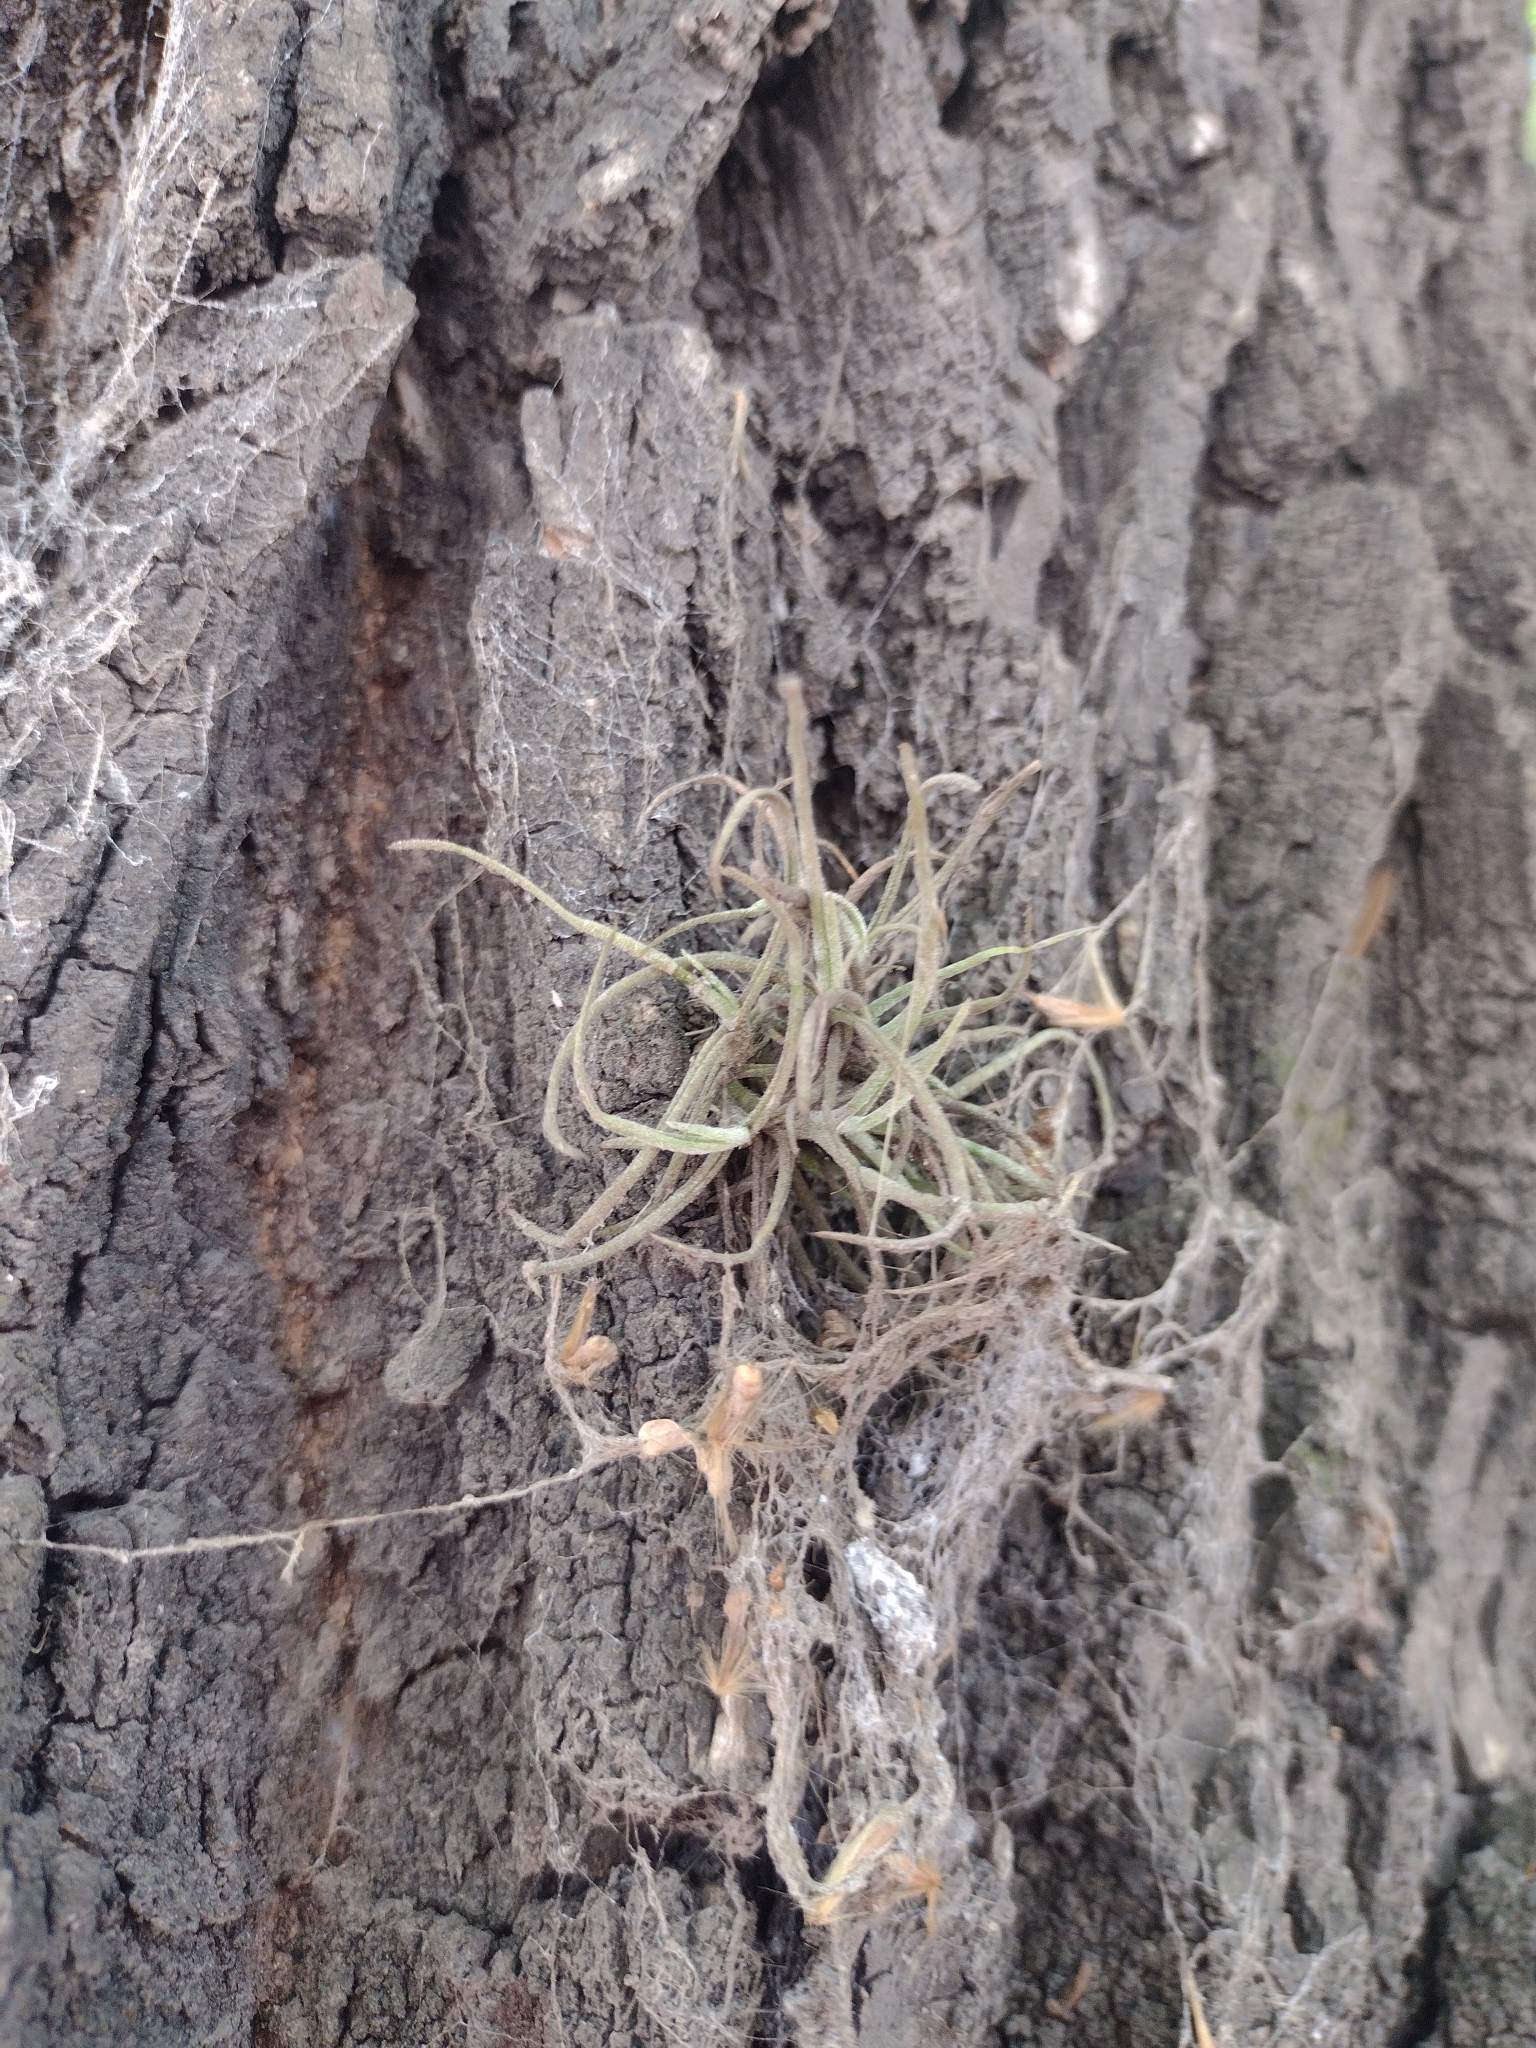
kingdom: Plantae
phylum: Tracheophyta
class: Liliopsida
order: Poales
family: Bromeliaceae
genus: Tillandsia
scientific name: Tillandsia recurvata
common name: Small ballmoss
